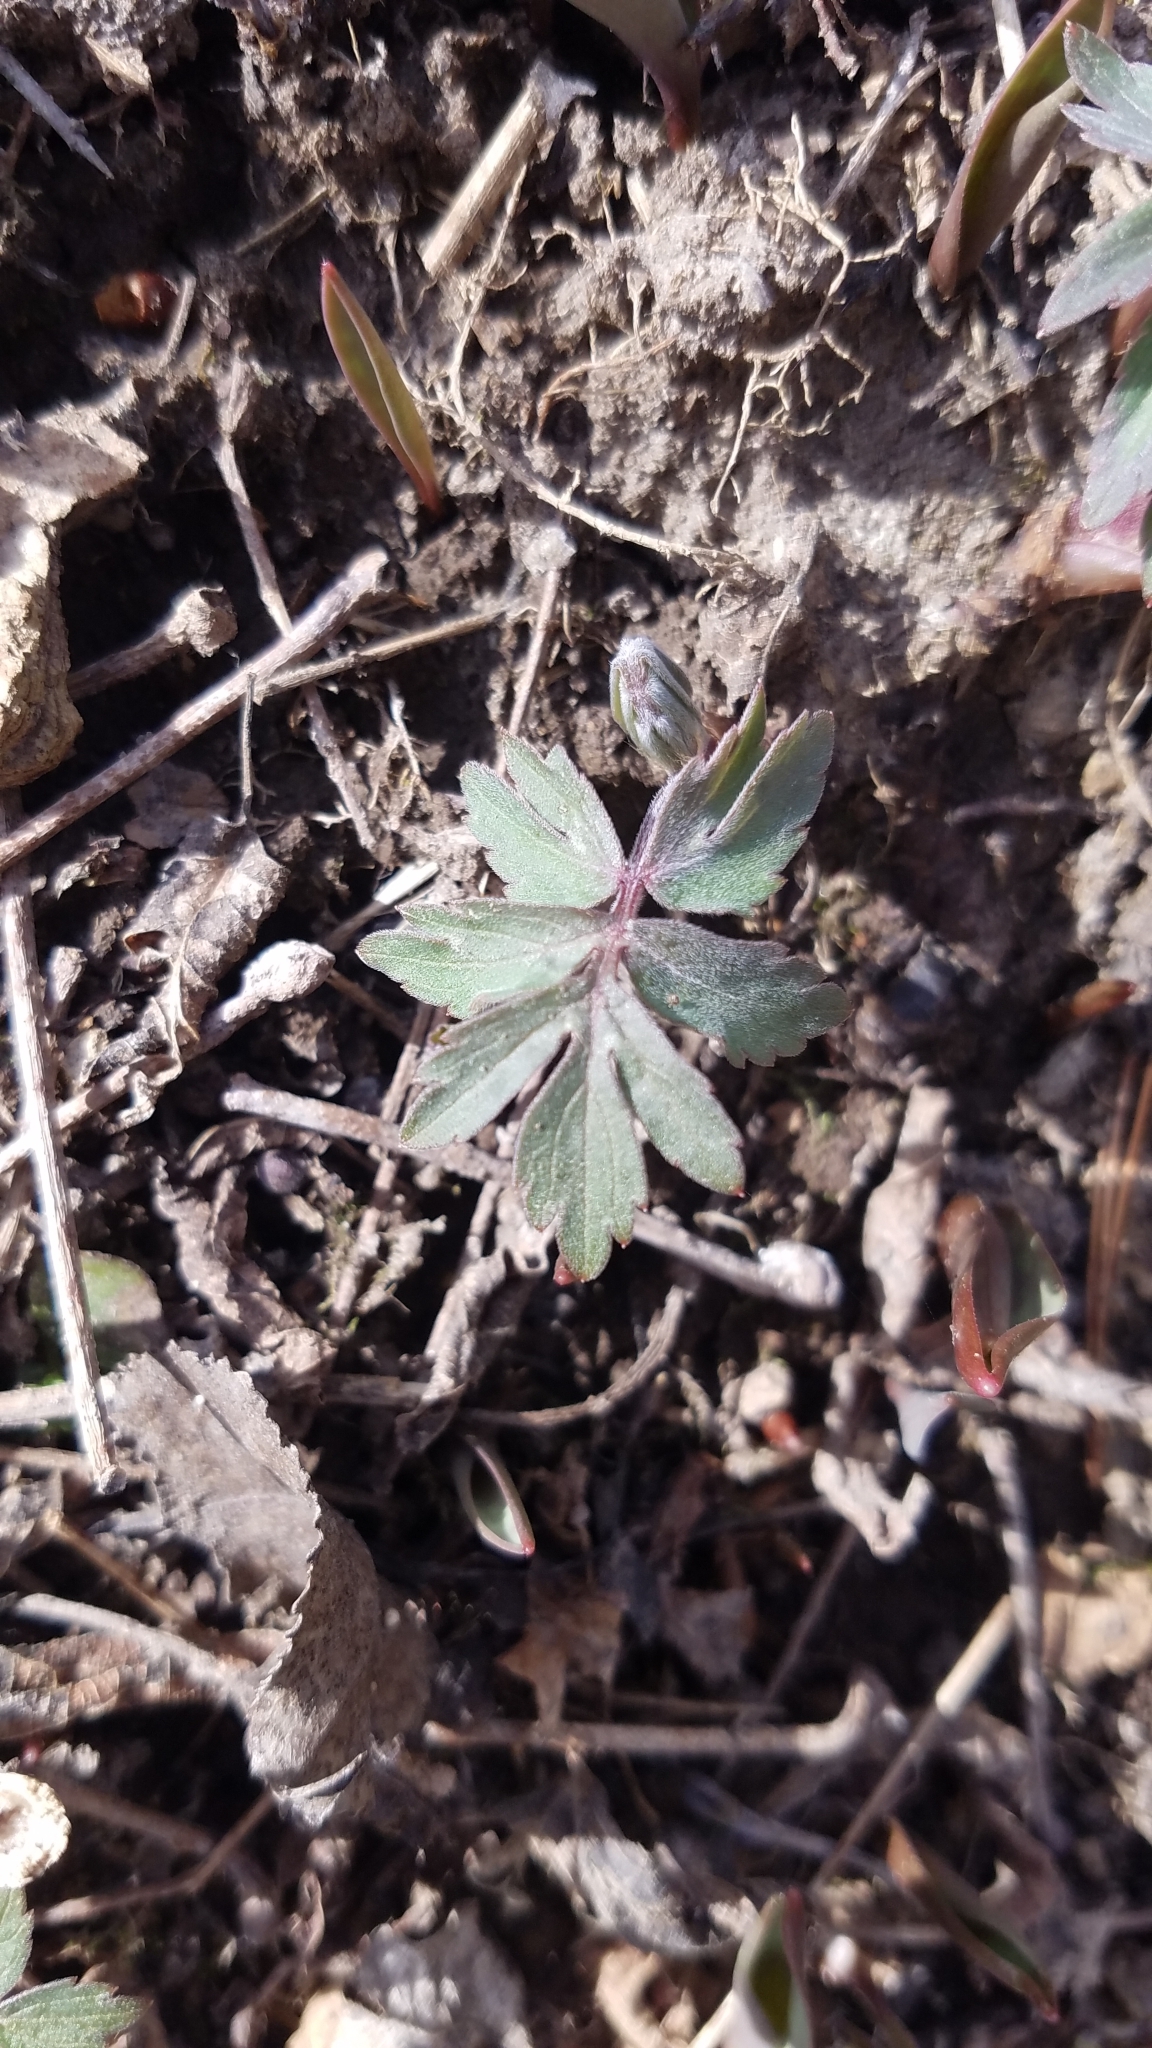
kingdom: Plantae
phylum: Tracheophyta
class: Magnoliopsida
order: Boraginales
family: Hydrophyllaceae
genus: Hydrophyllum
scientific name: Hydrophyllum virginianum
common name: Virginia waterleaf
